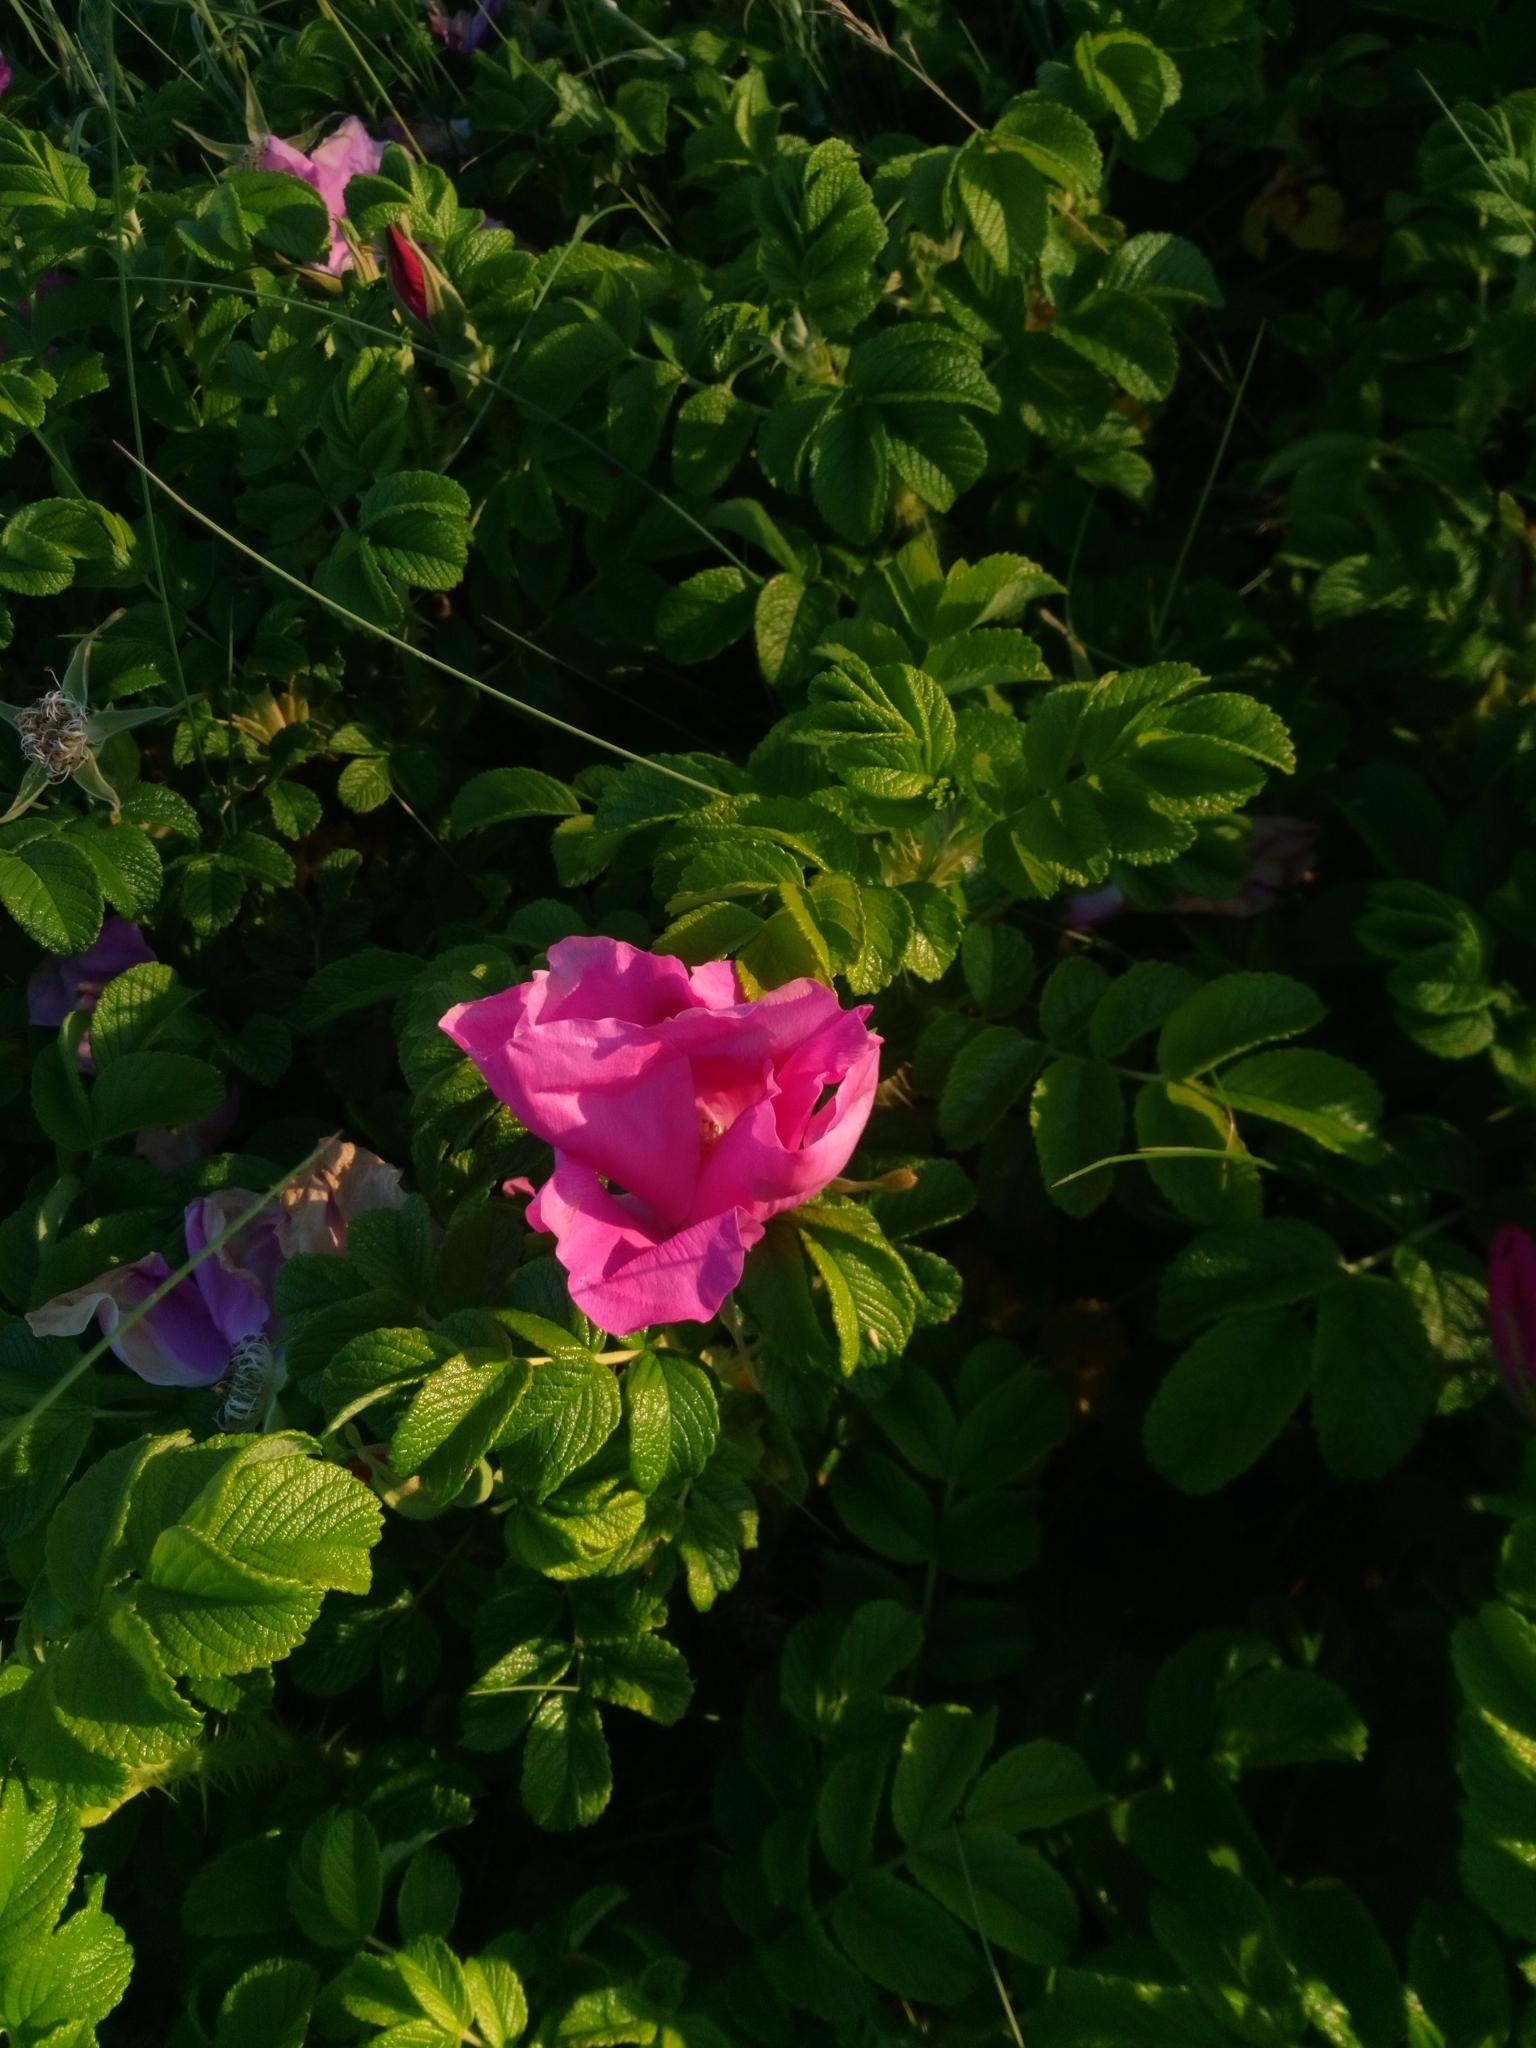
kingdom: Plantae
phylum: Tracheophyta
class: Magnoliopsida
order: Rosales
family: Rosaceae
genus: Rosa
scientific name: Rosa rugosa
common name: Japanese rose
